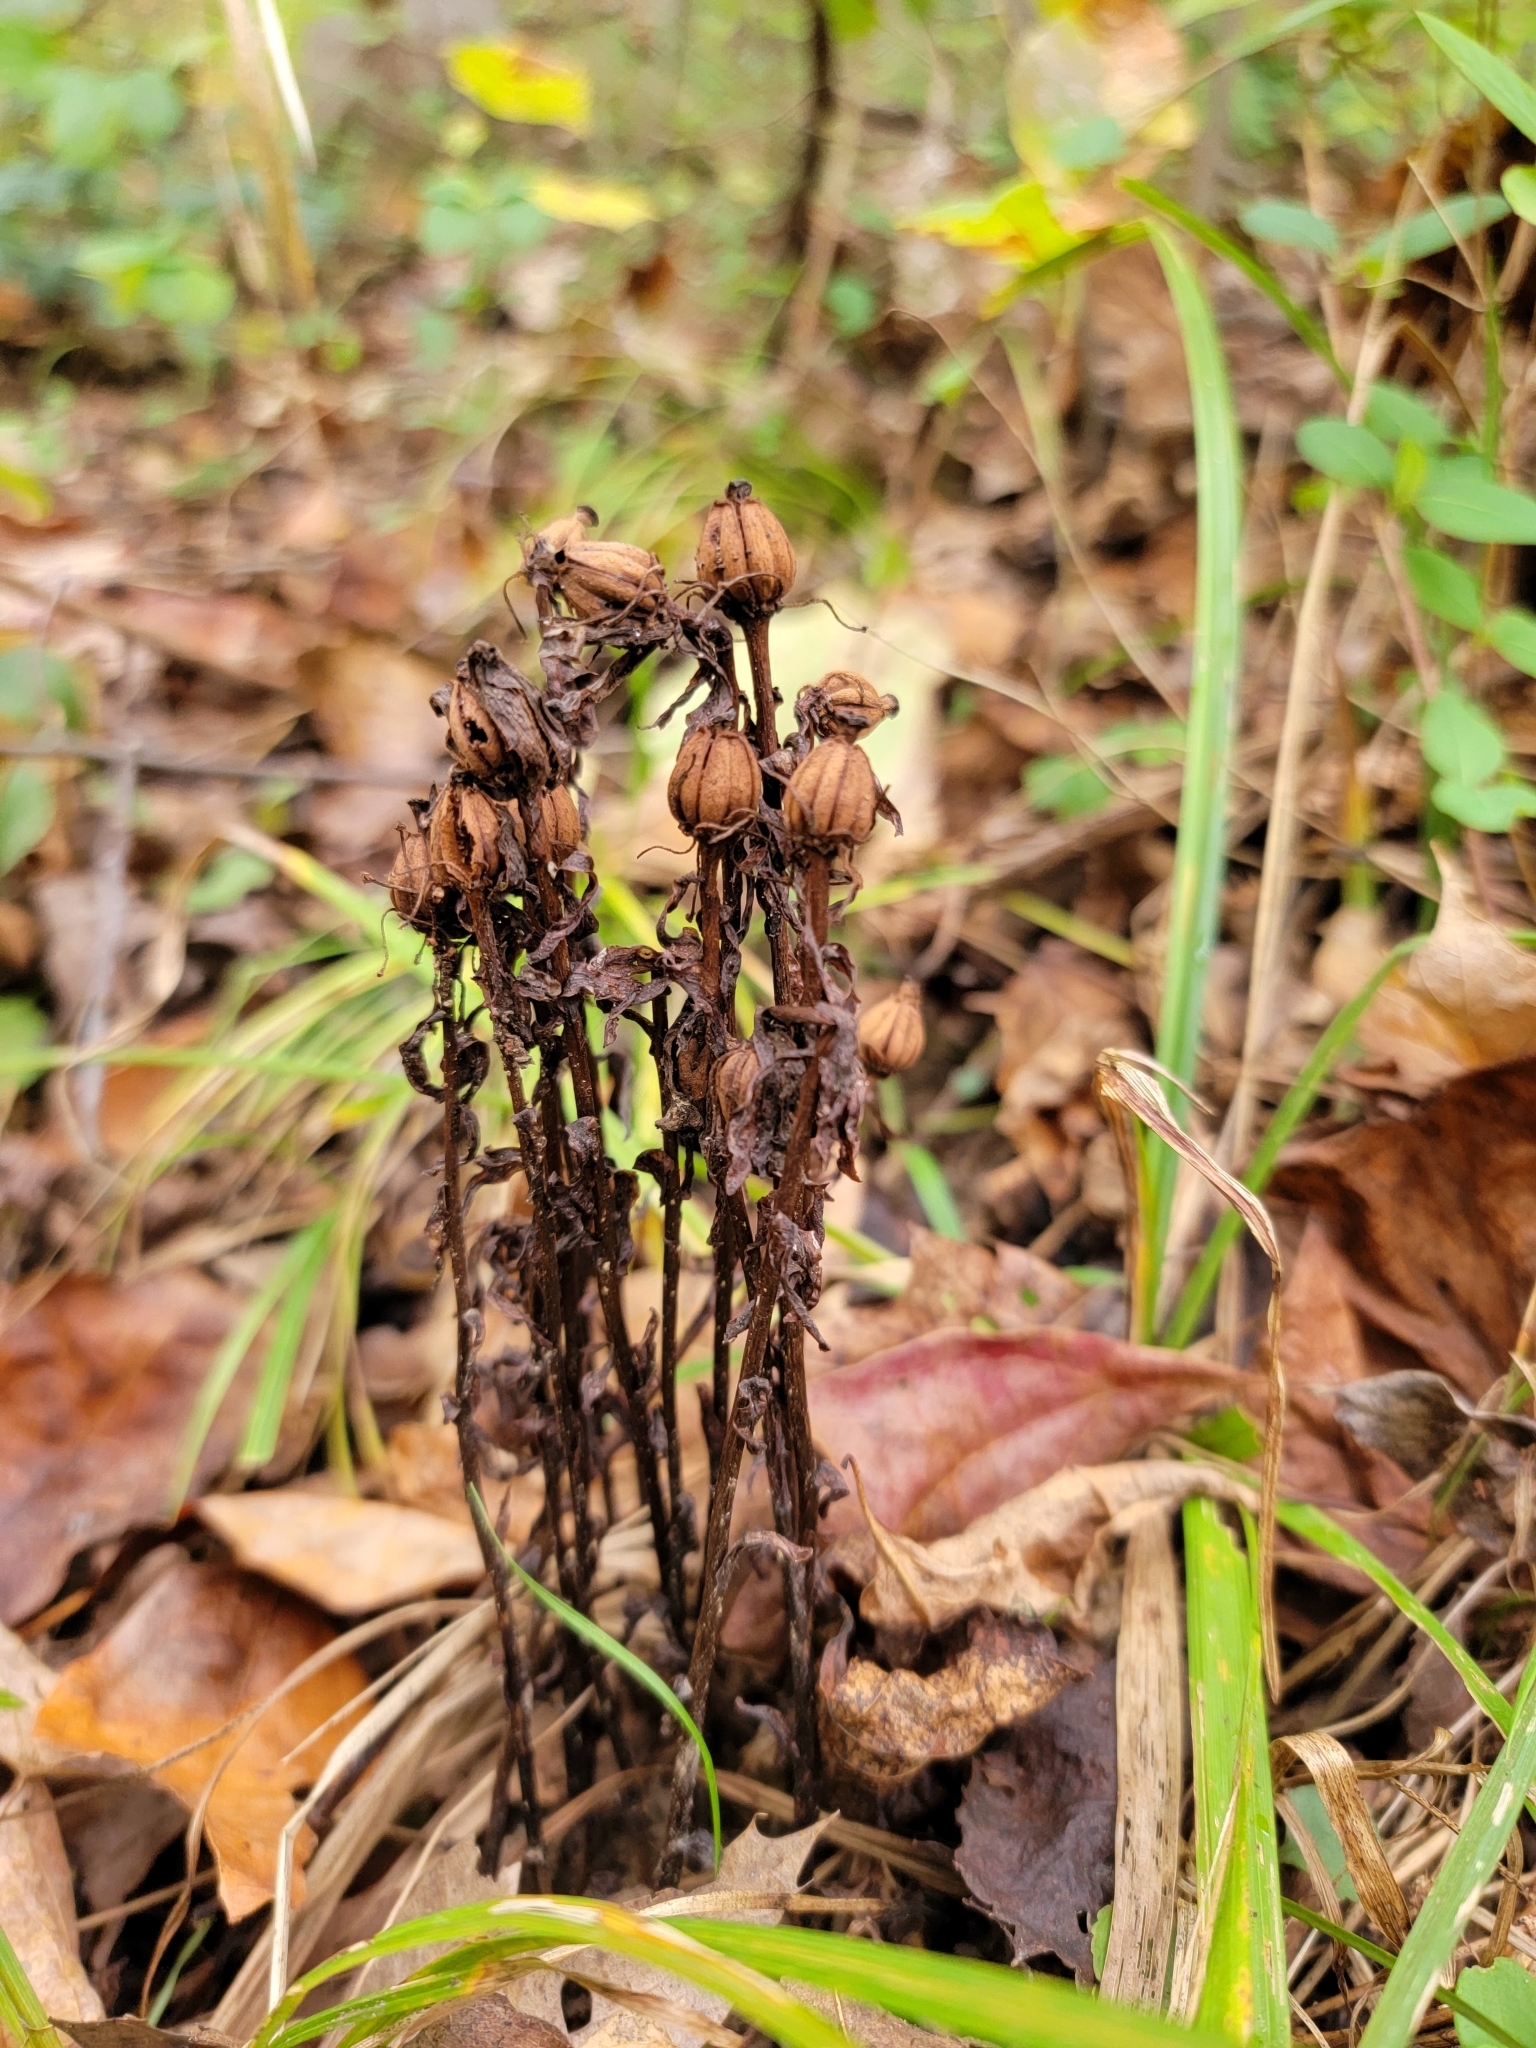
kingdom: Plantae
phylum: Tracheophyta
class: Magnoliopsida
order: Ericales
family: Ericaceae
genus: Monotropa
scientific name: Monotropa uniflora
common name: Convulsion root
